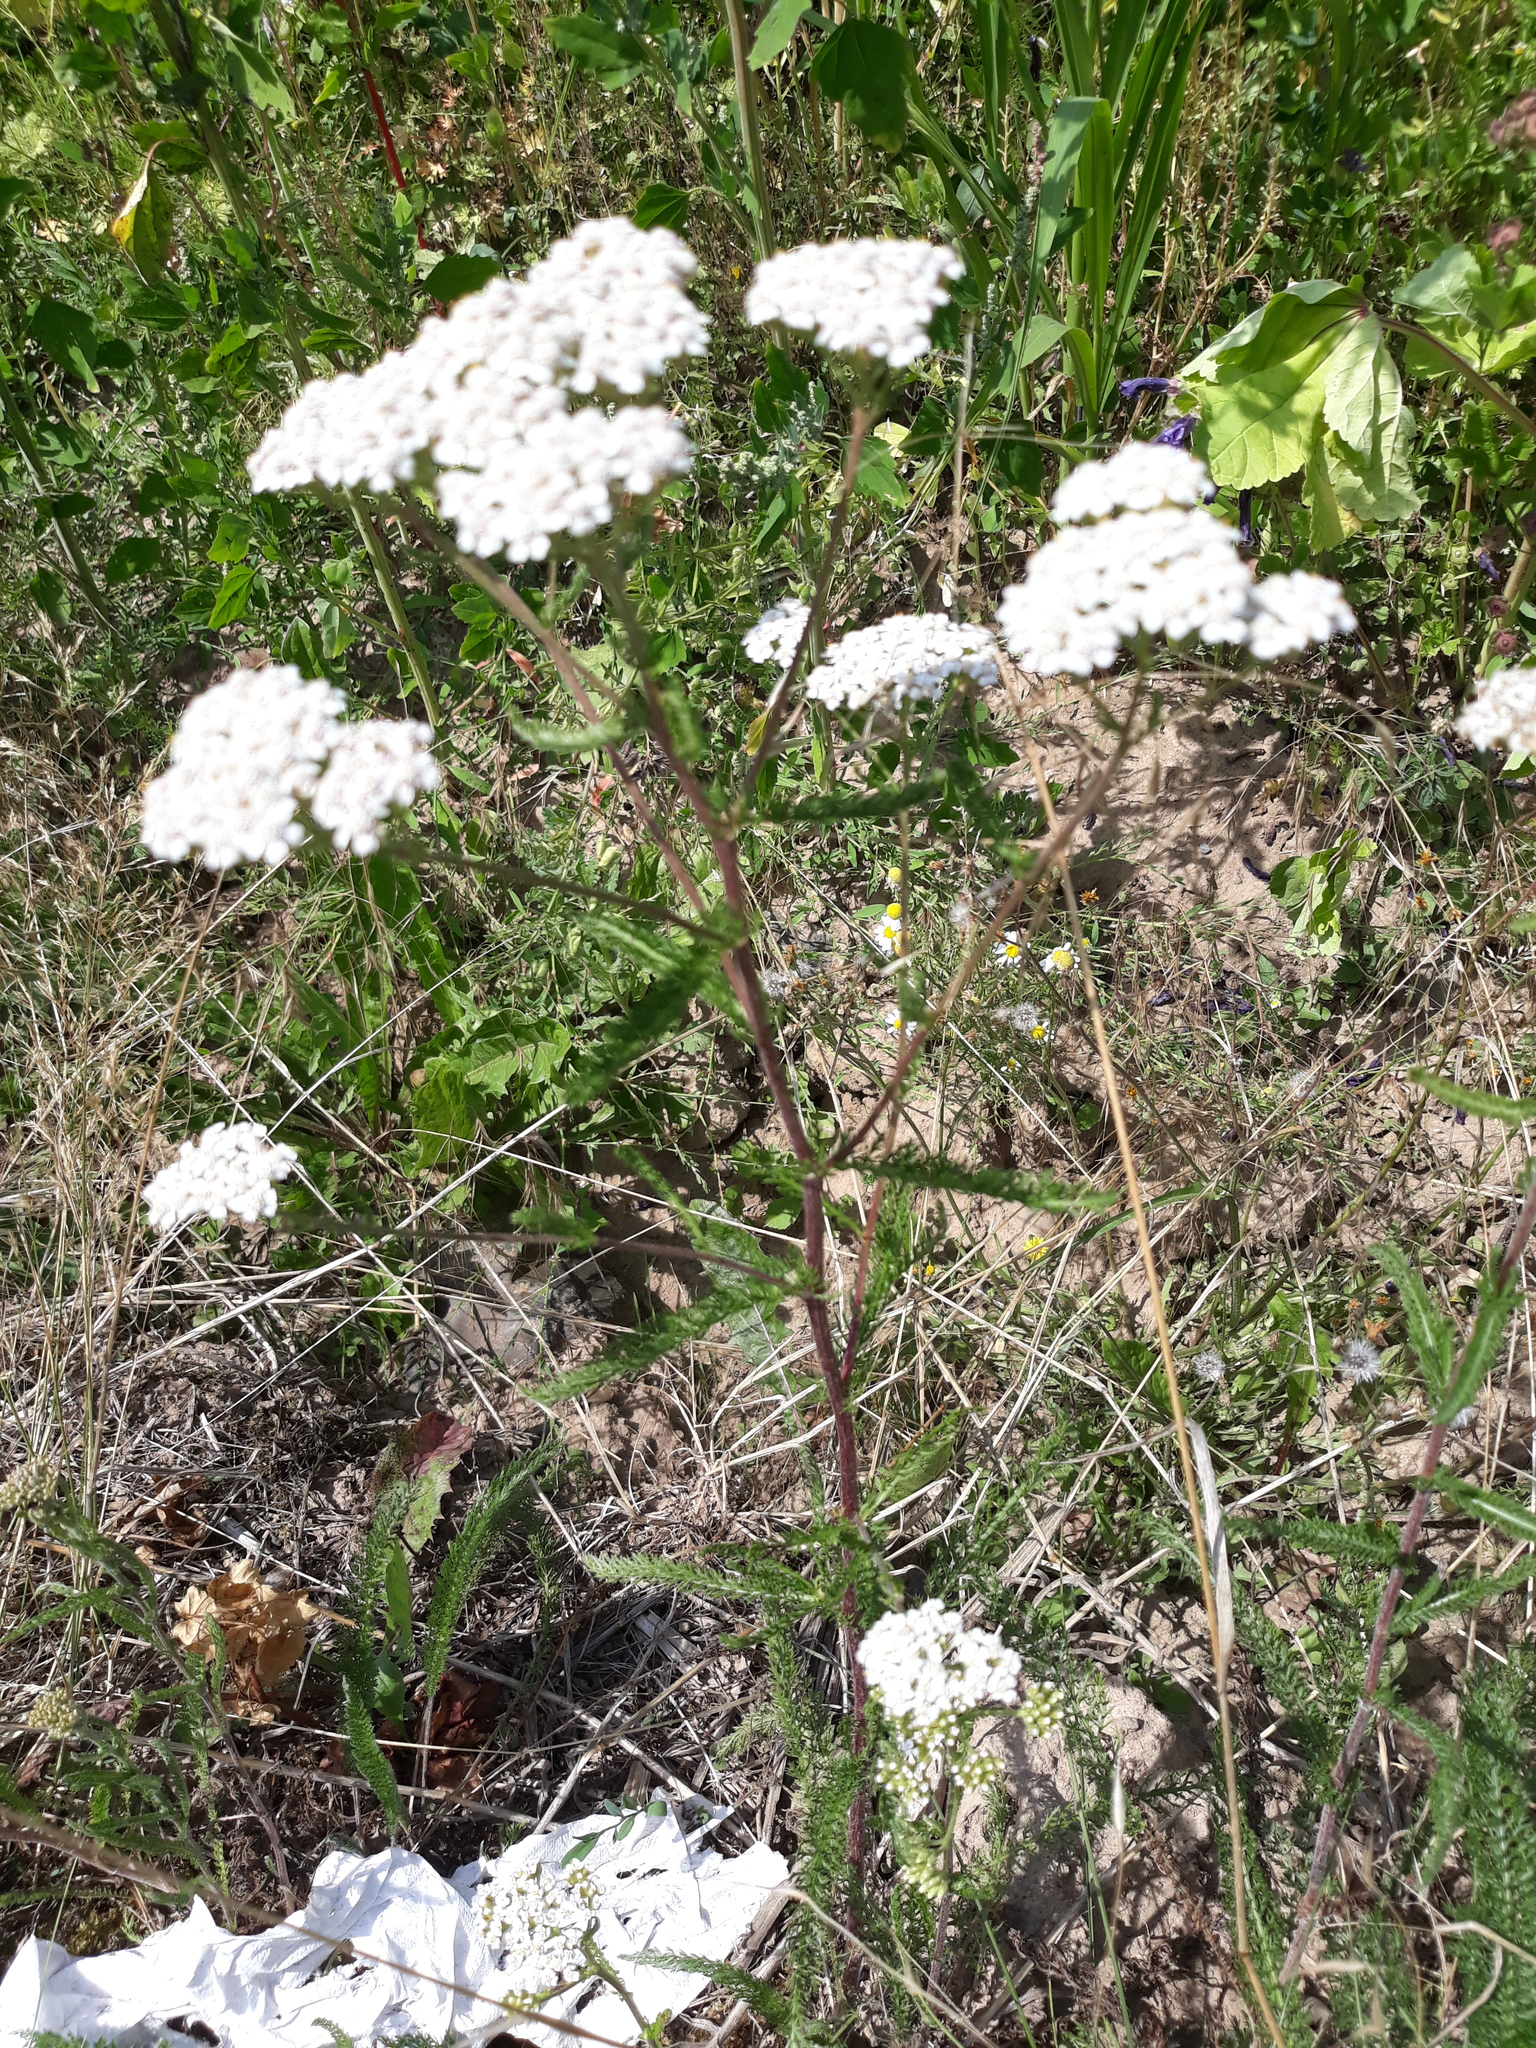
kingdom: Plantae
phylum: Tracheophyta
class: Magnoliopsida
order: Asterales
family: Asteraceae
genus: Achillea
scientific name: Achillea millefolium
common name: Yarrow
